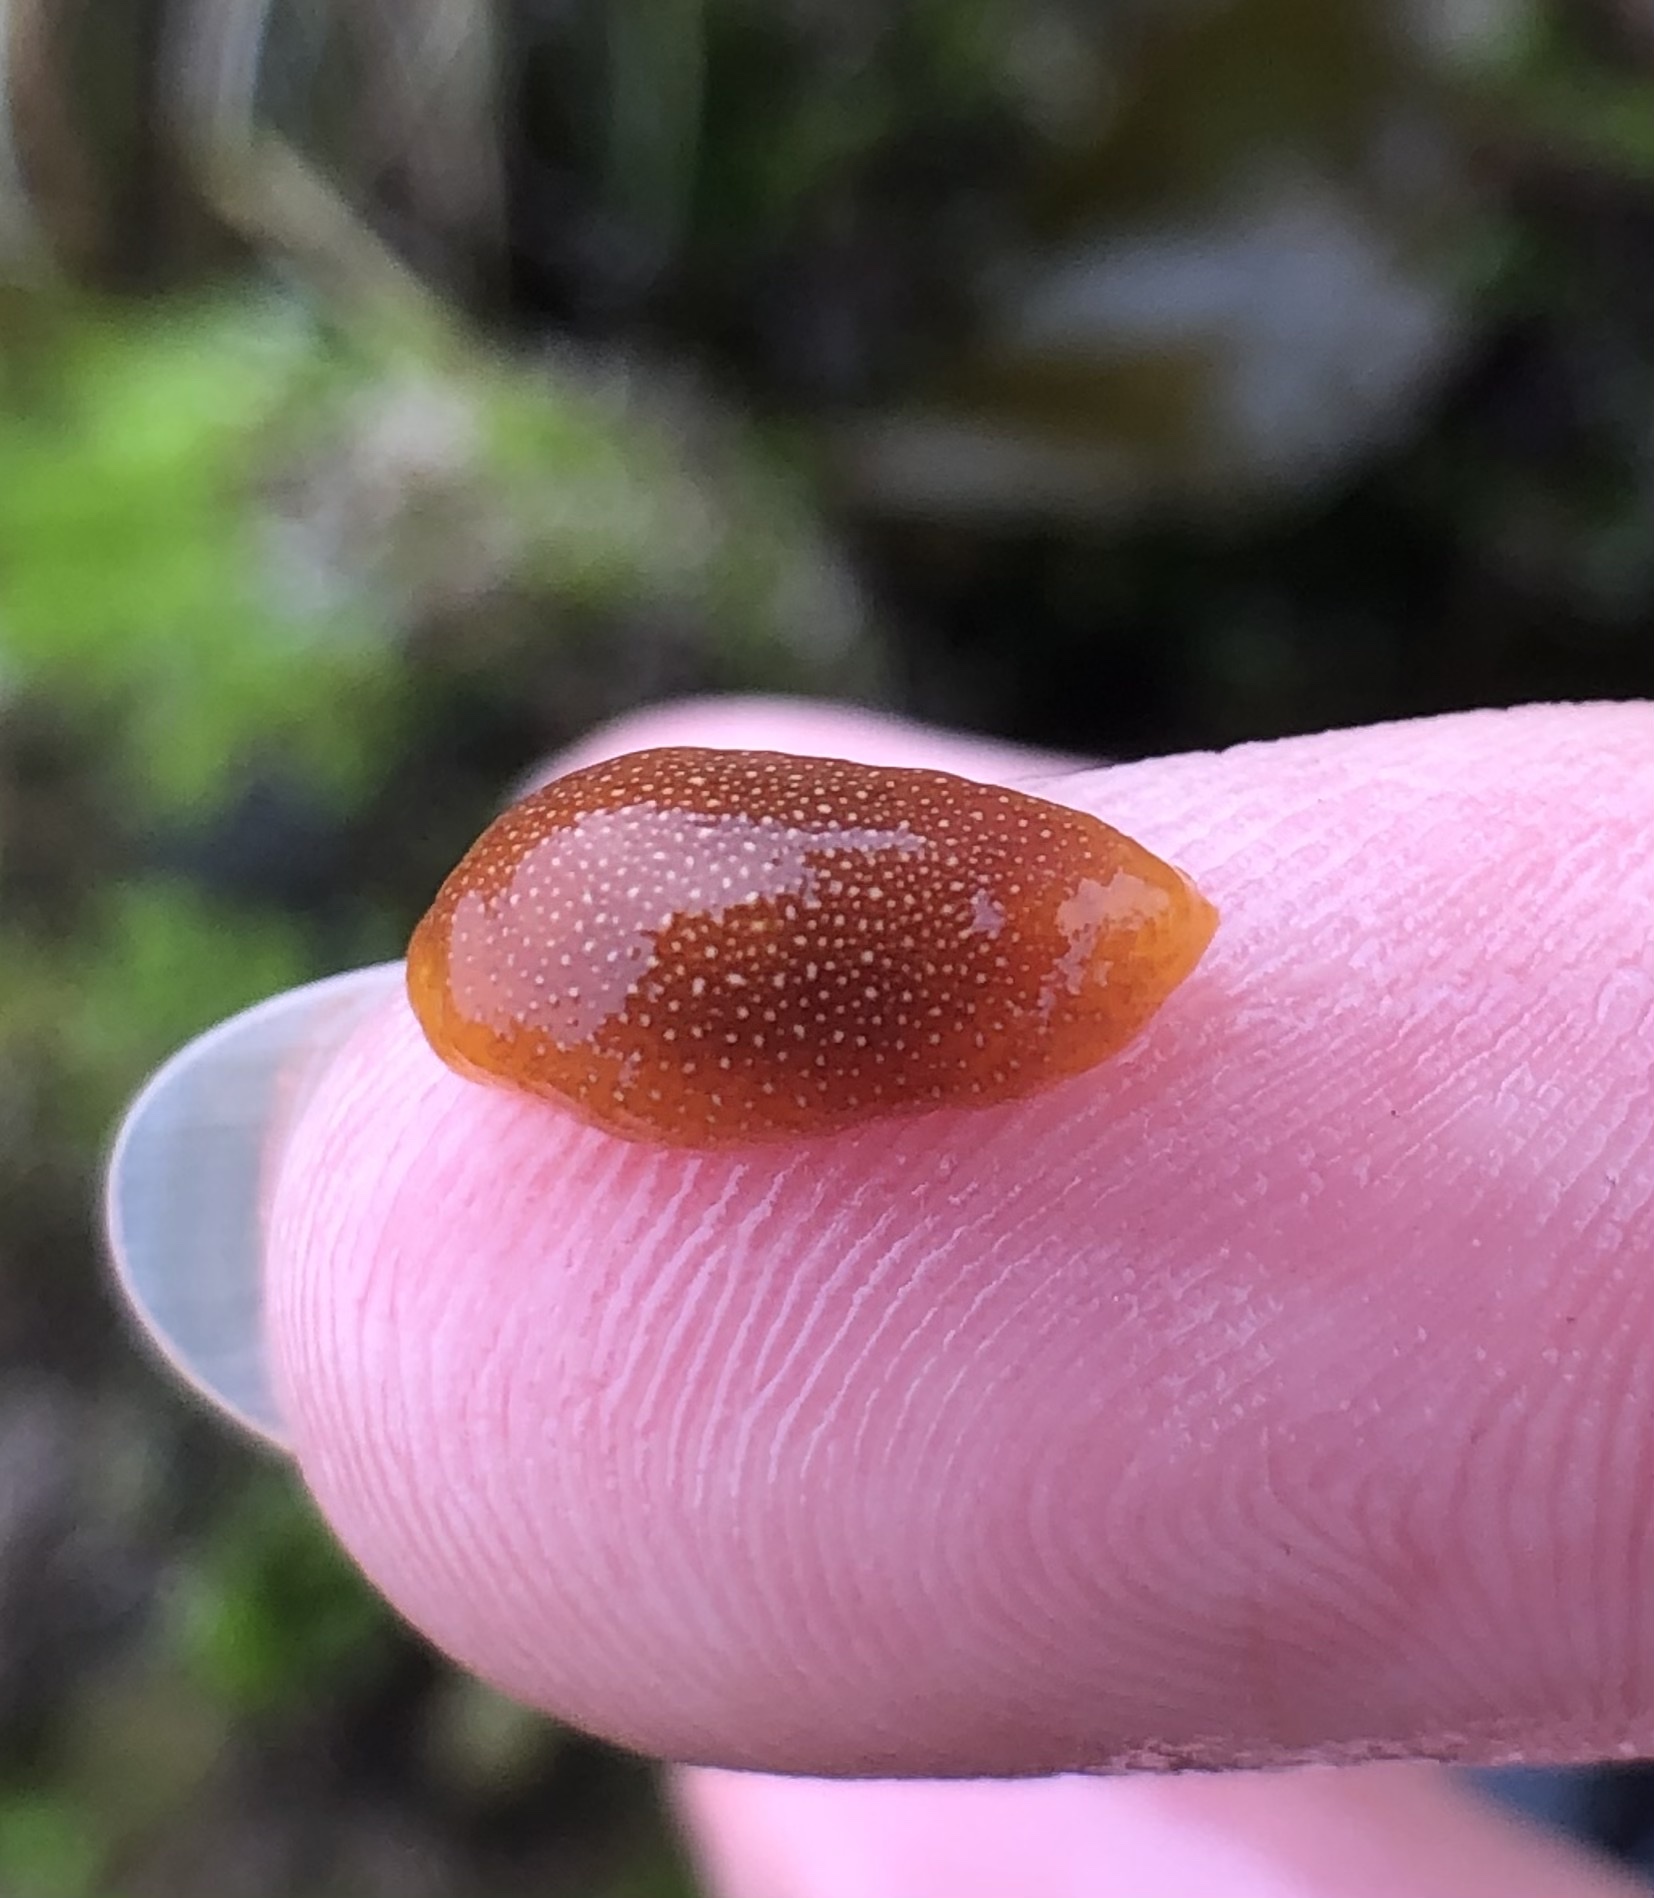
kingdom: Animalia
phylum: Mollusca
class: Gastropoda
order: Nudibranchia
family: Dendrodorididae
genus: Doriopsilla
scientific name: Doriopsilla gemela
